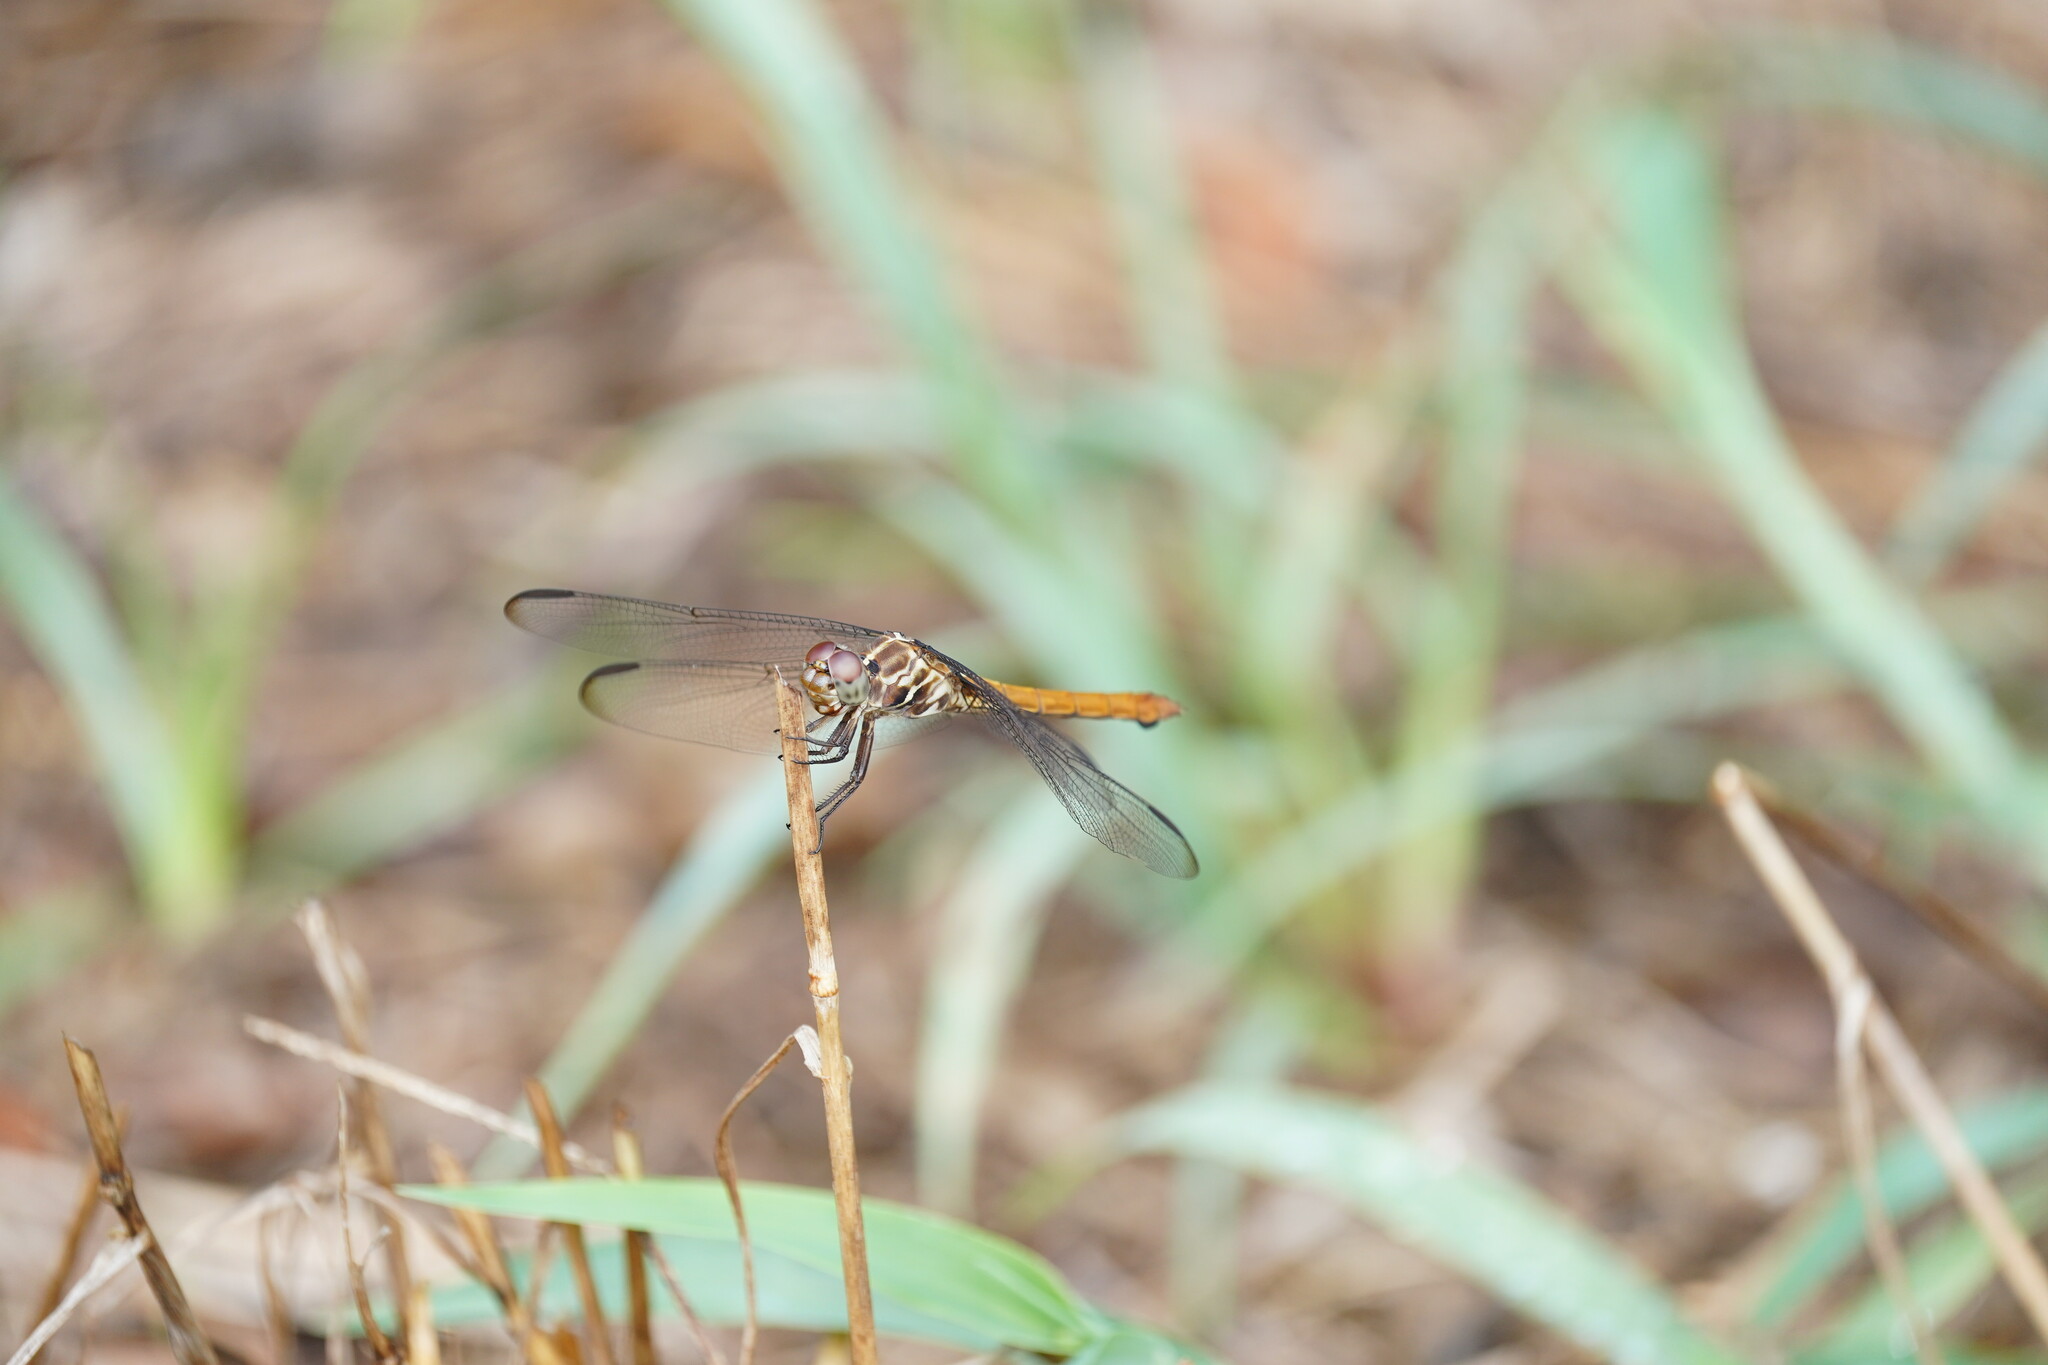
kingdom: Animalia
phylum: Arthropoda
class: Insecta
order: Odonata
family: Libellulidae
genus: Orthemis
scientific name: Orthemis ferruginea
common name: Roseate skimmer
